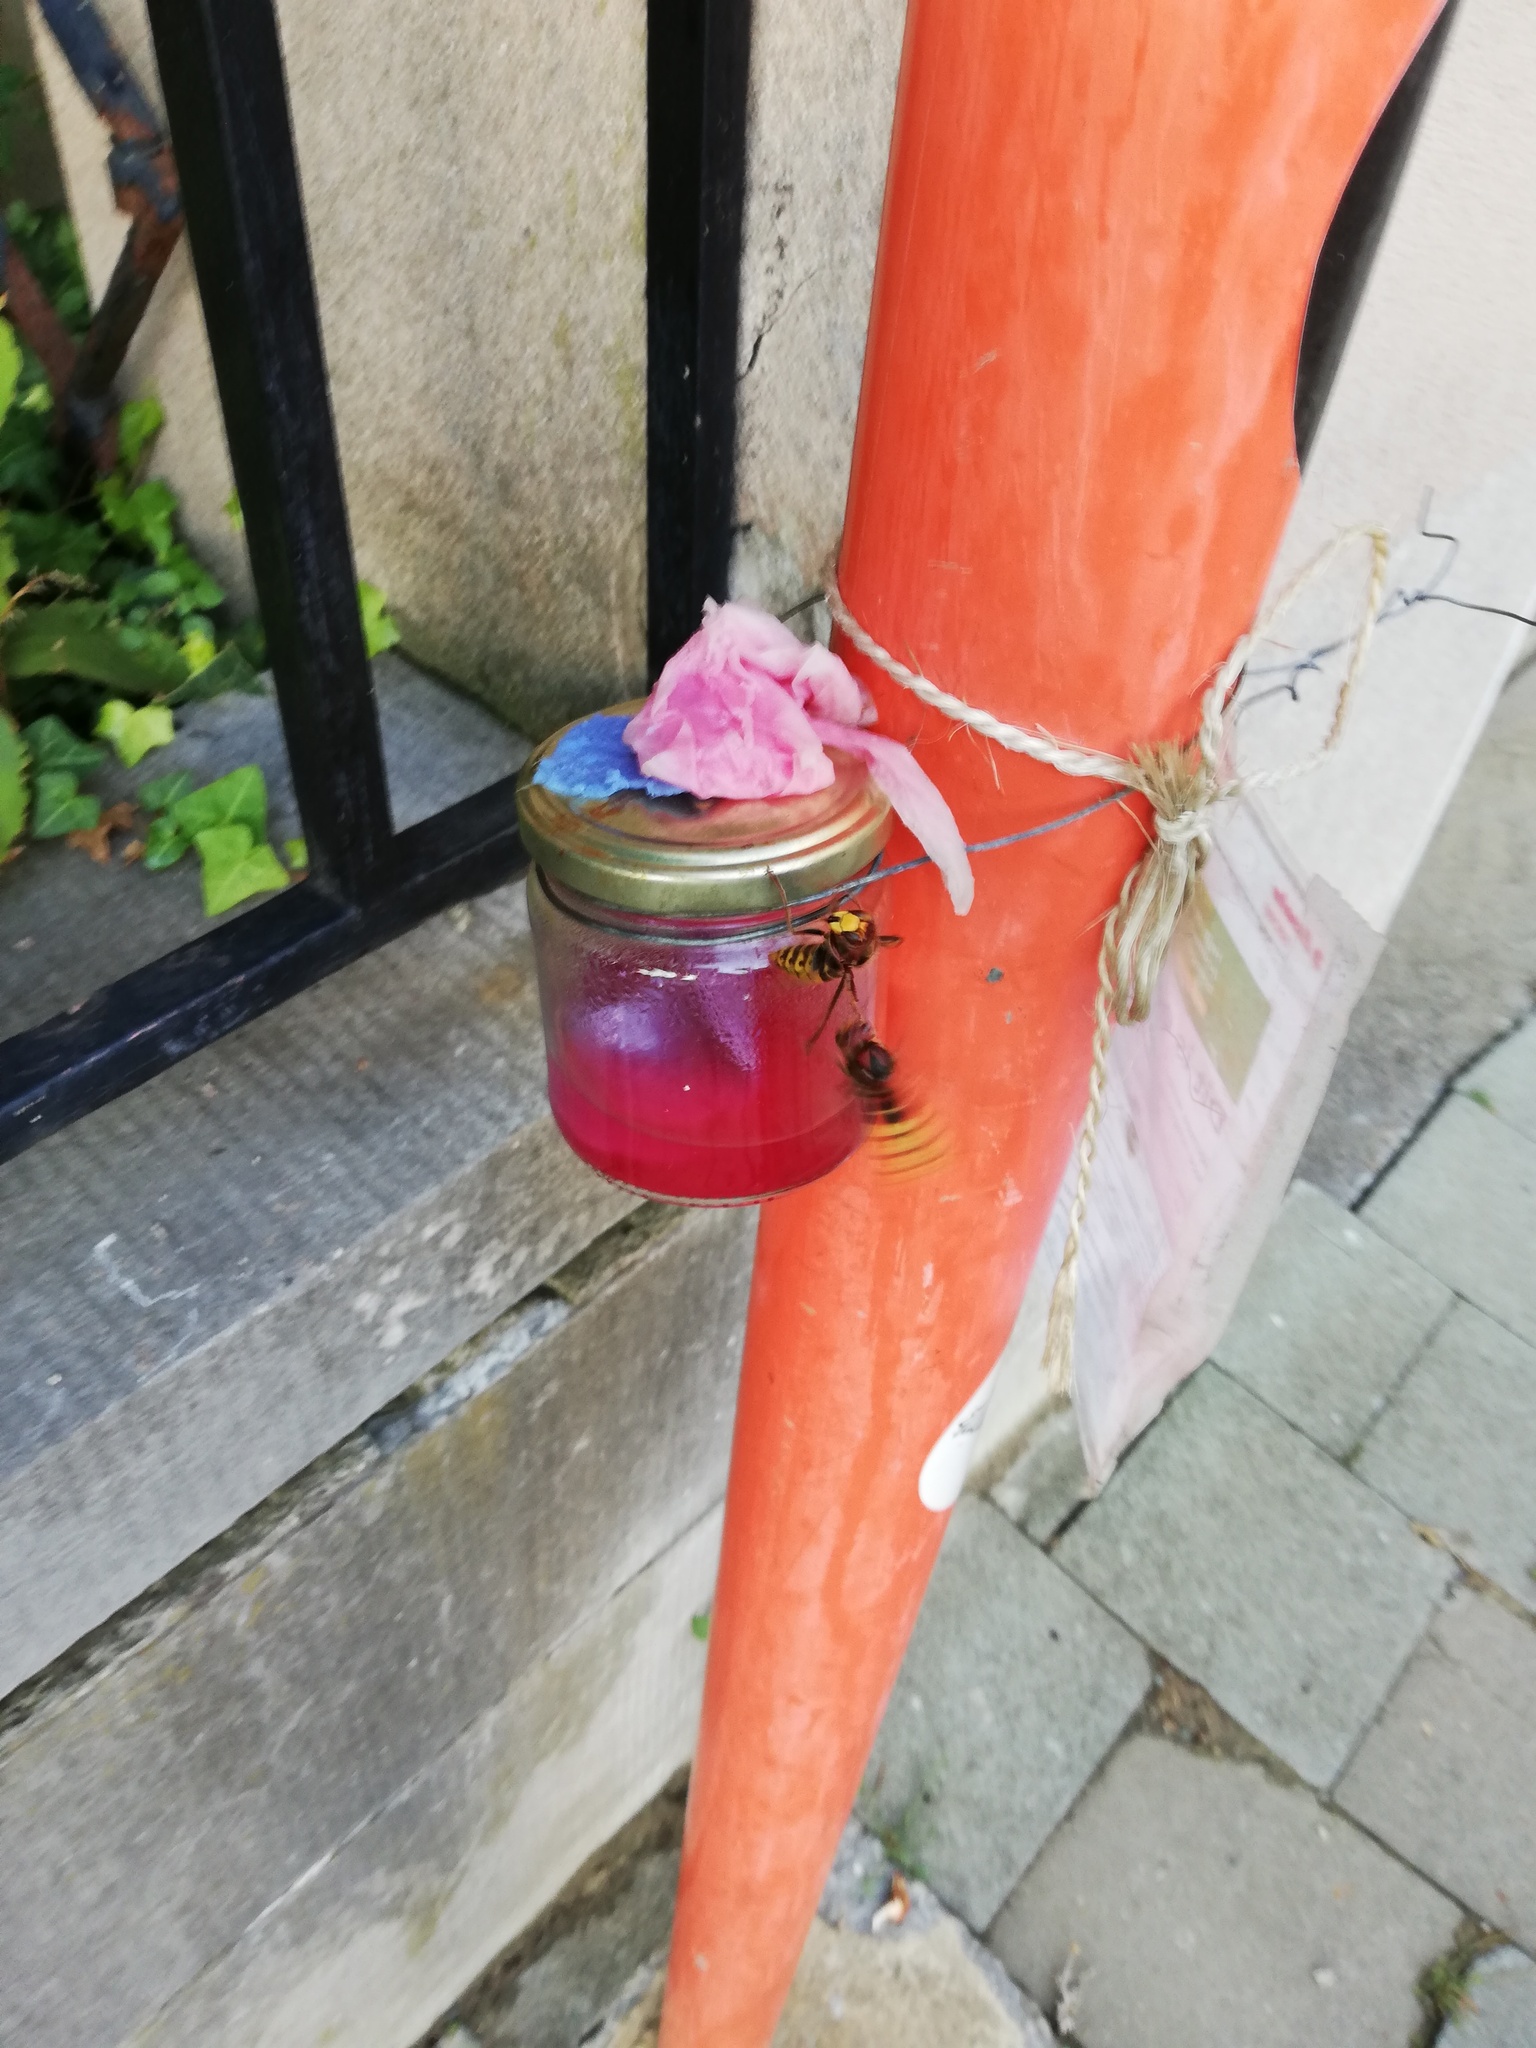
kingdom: Animalia
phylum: Arthropoda
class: Insecta
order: Hymenoptera
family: Vespidae
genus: Vespa
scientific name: Vespa crabro
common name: Hornet
